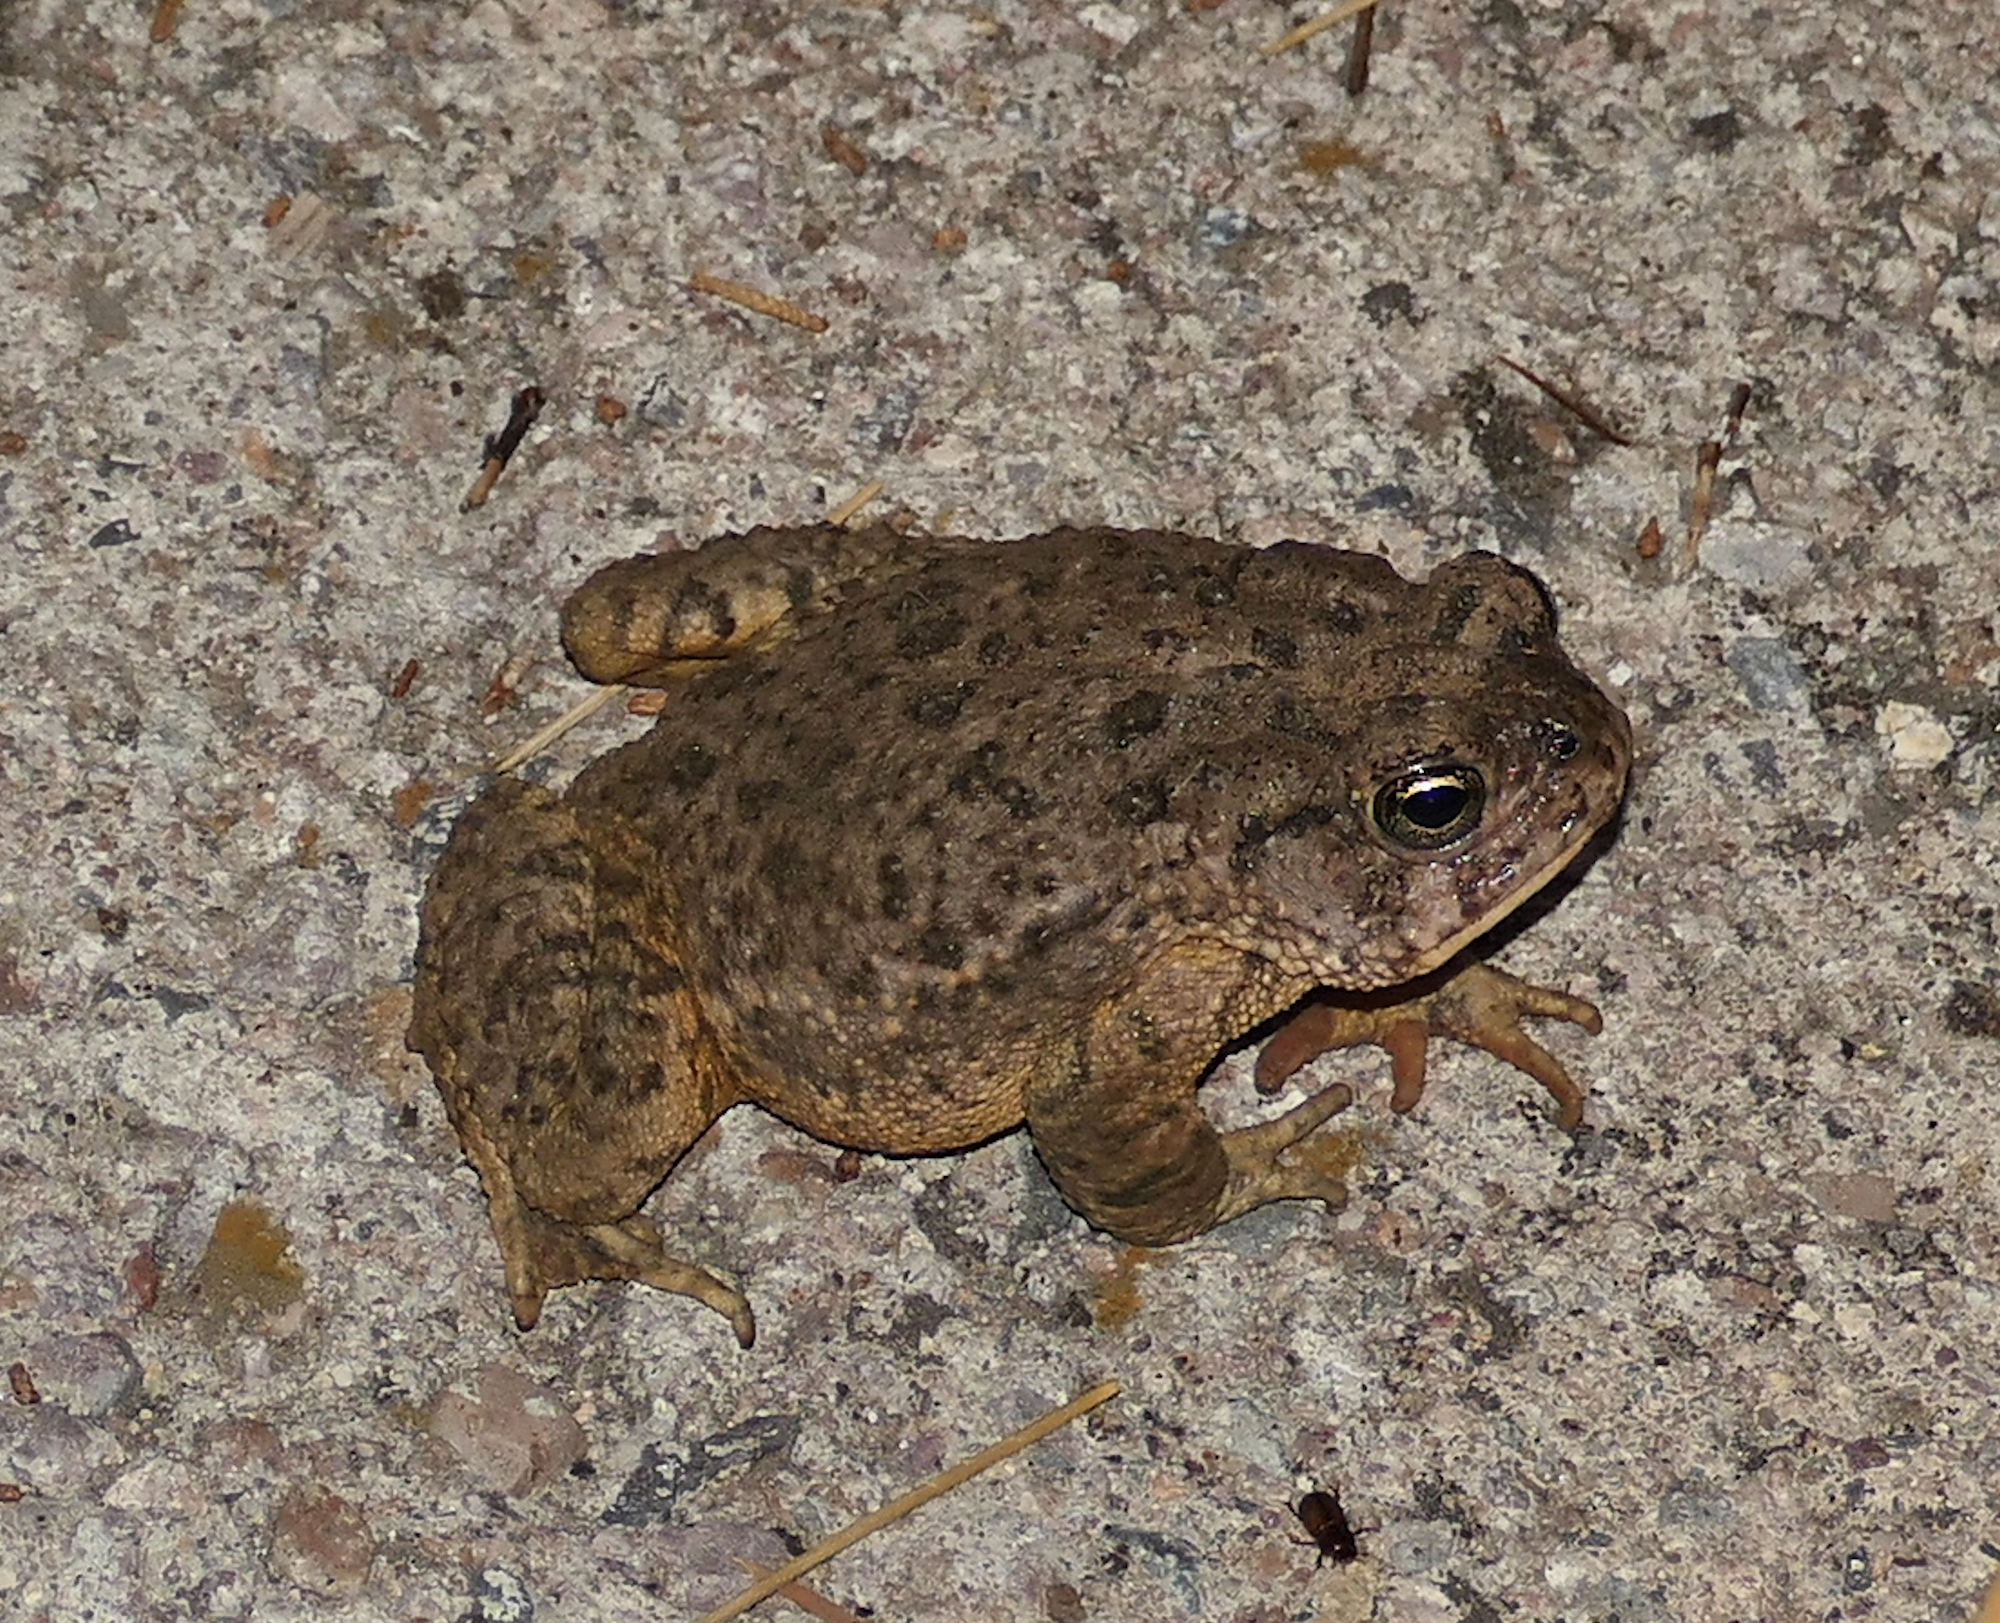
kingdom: Animalia
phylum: Chordata
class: Amphibia
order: Anura
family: Bufonidae
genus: Anaxyrus
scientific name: Anaxyrus microscaphus
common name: Arizona toad
